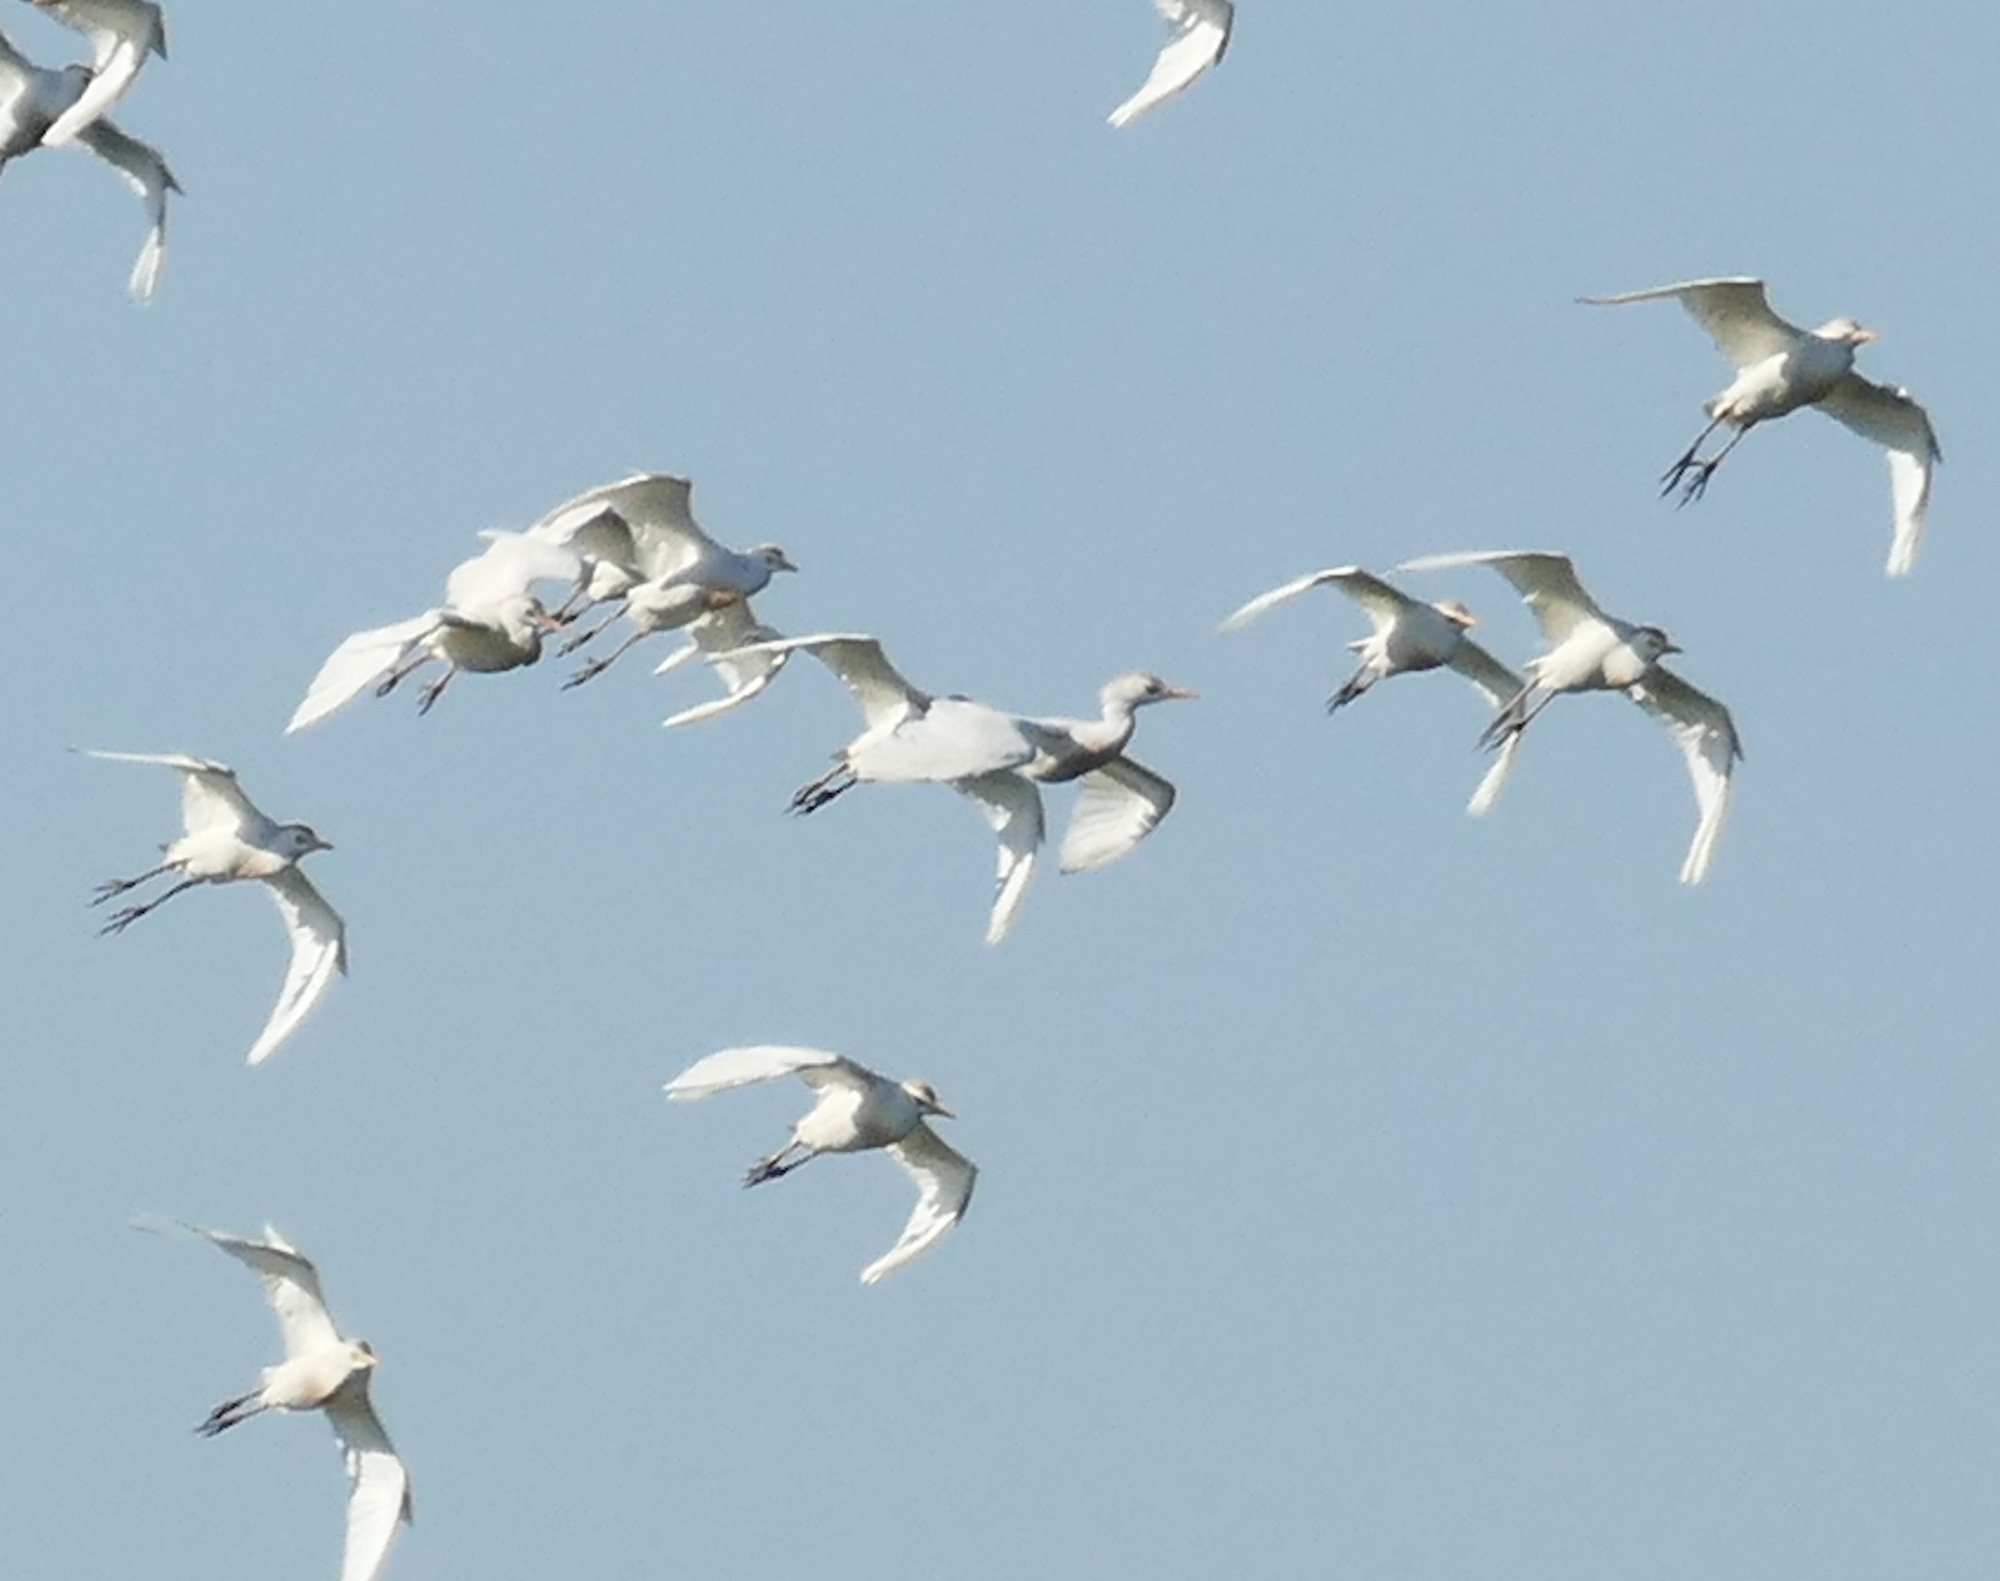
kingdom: Animalia
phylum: Chordata
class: Aves
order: Pelecaniformes
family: Ardeidae
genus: Bubulcus
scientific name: Bubulcus ibis
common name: Cattle egret
